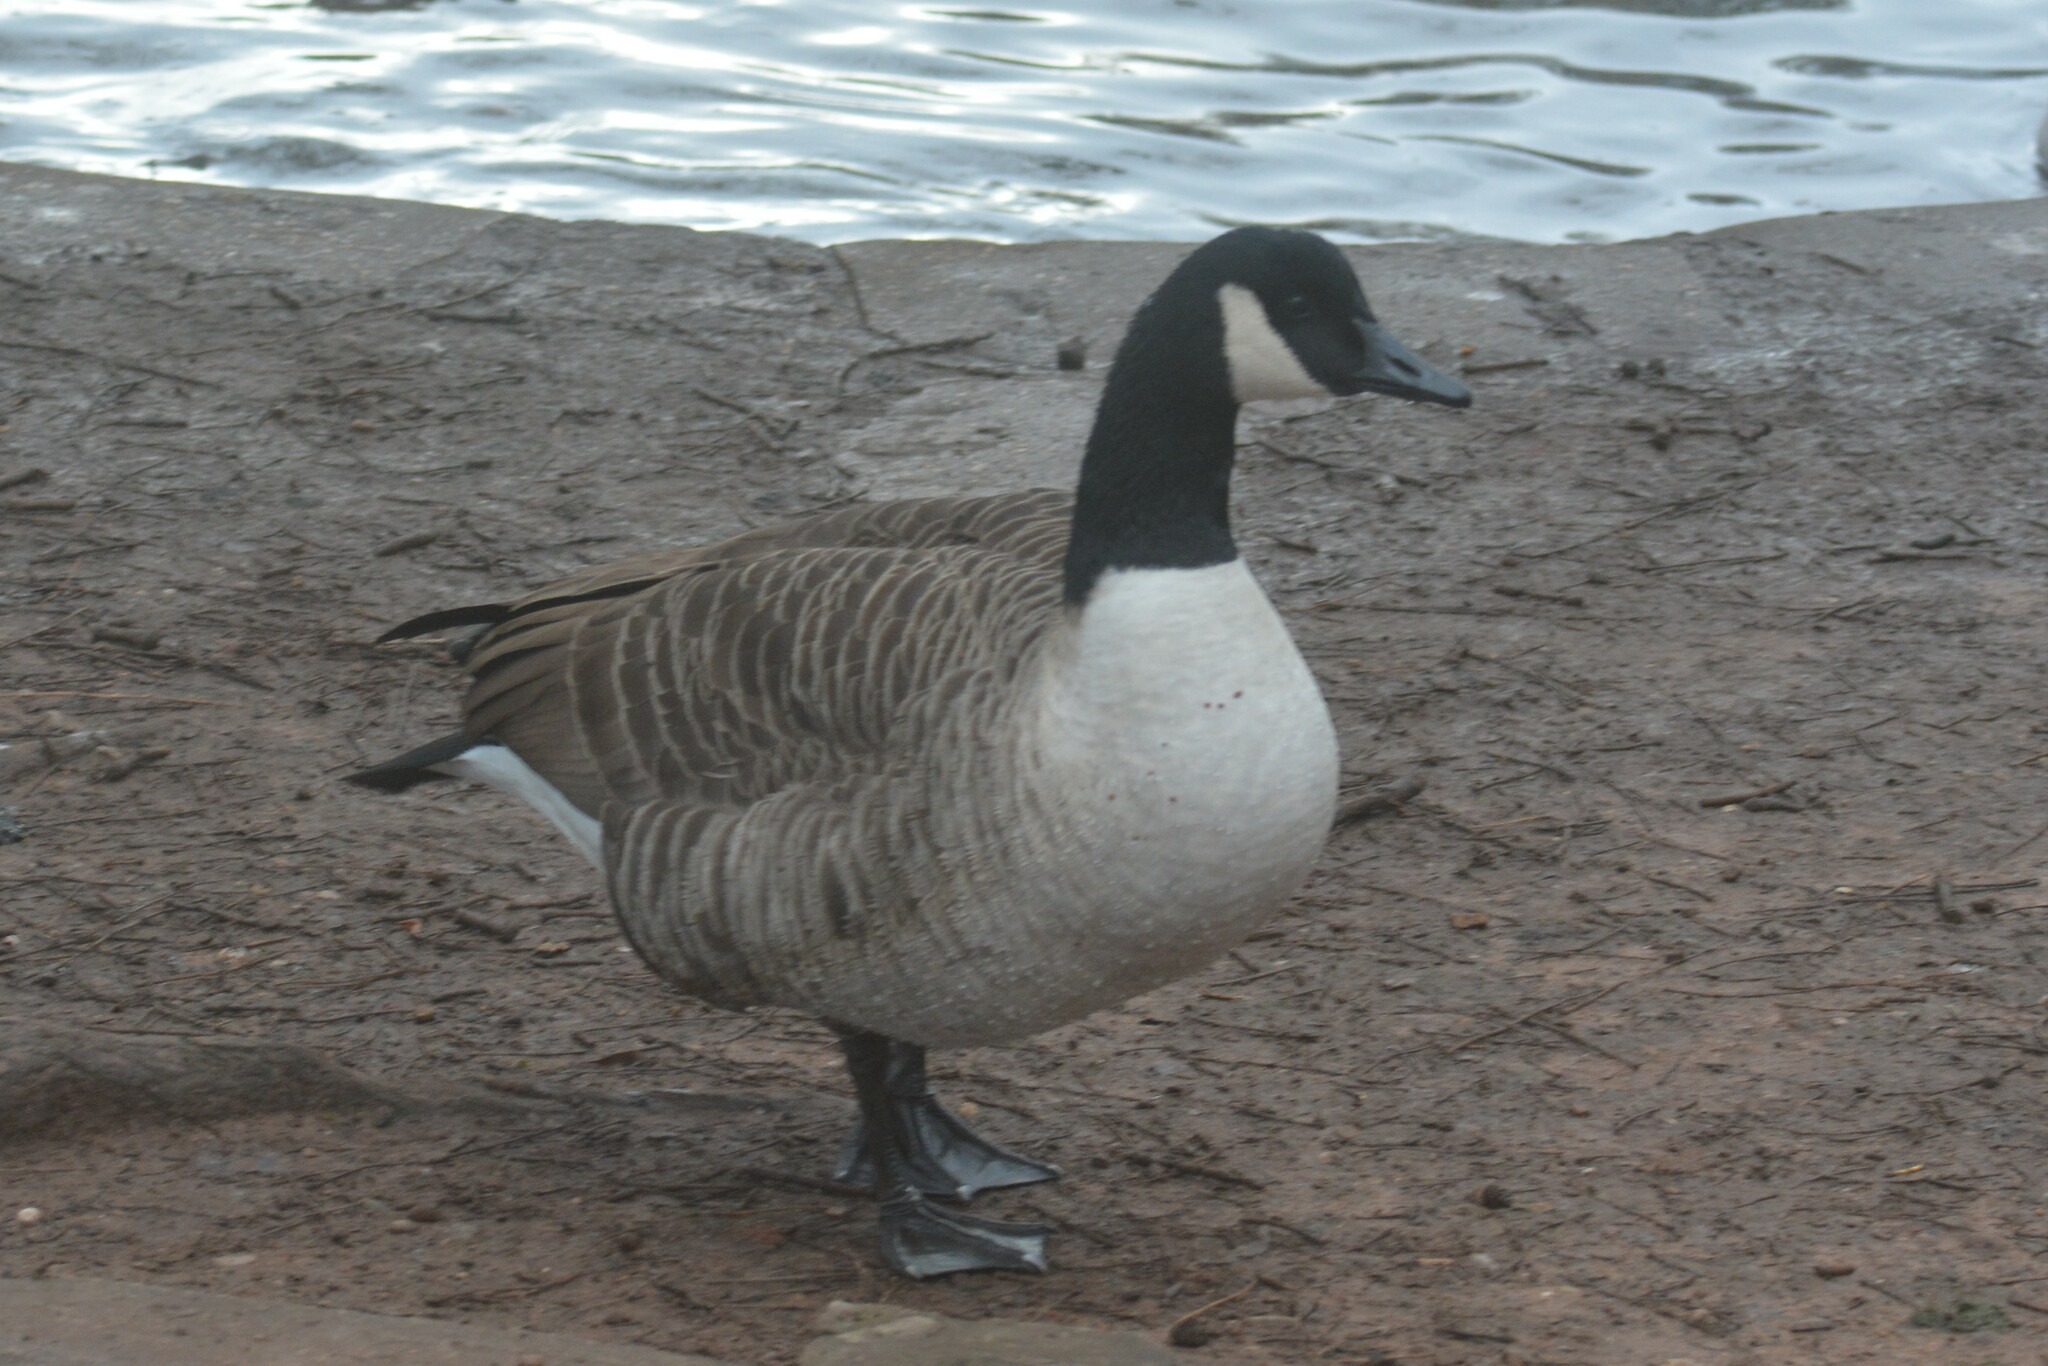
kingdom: Animalia
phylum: Chordata
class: Aves
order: Anseriformes
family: Anatidae
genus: Branta
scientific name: Branta canadensis
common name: Canada goose
